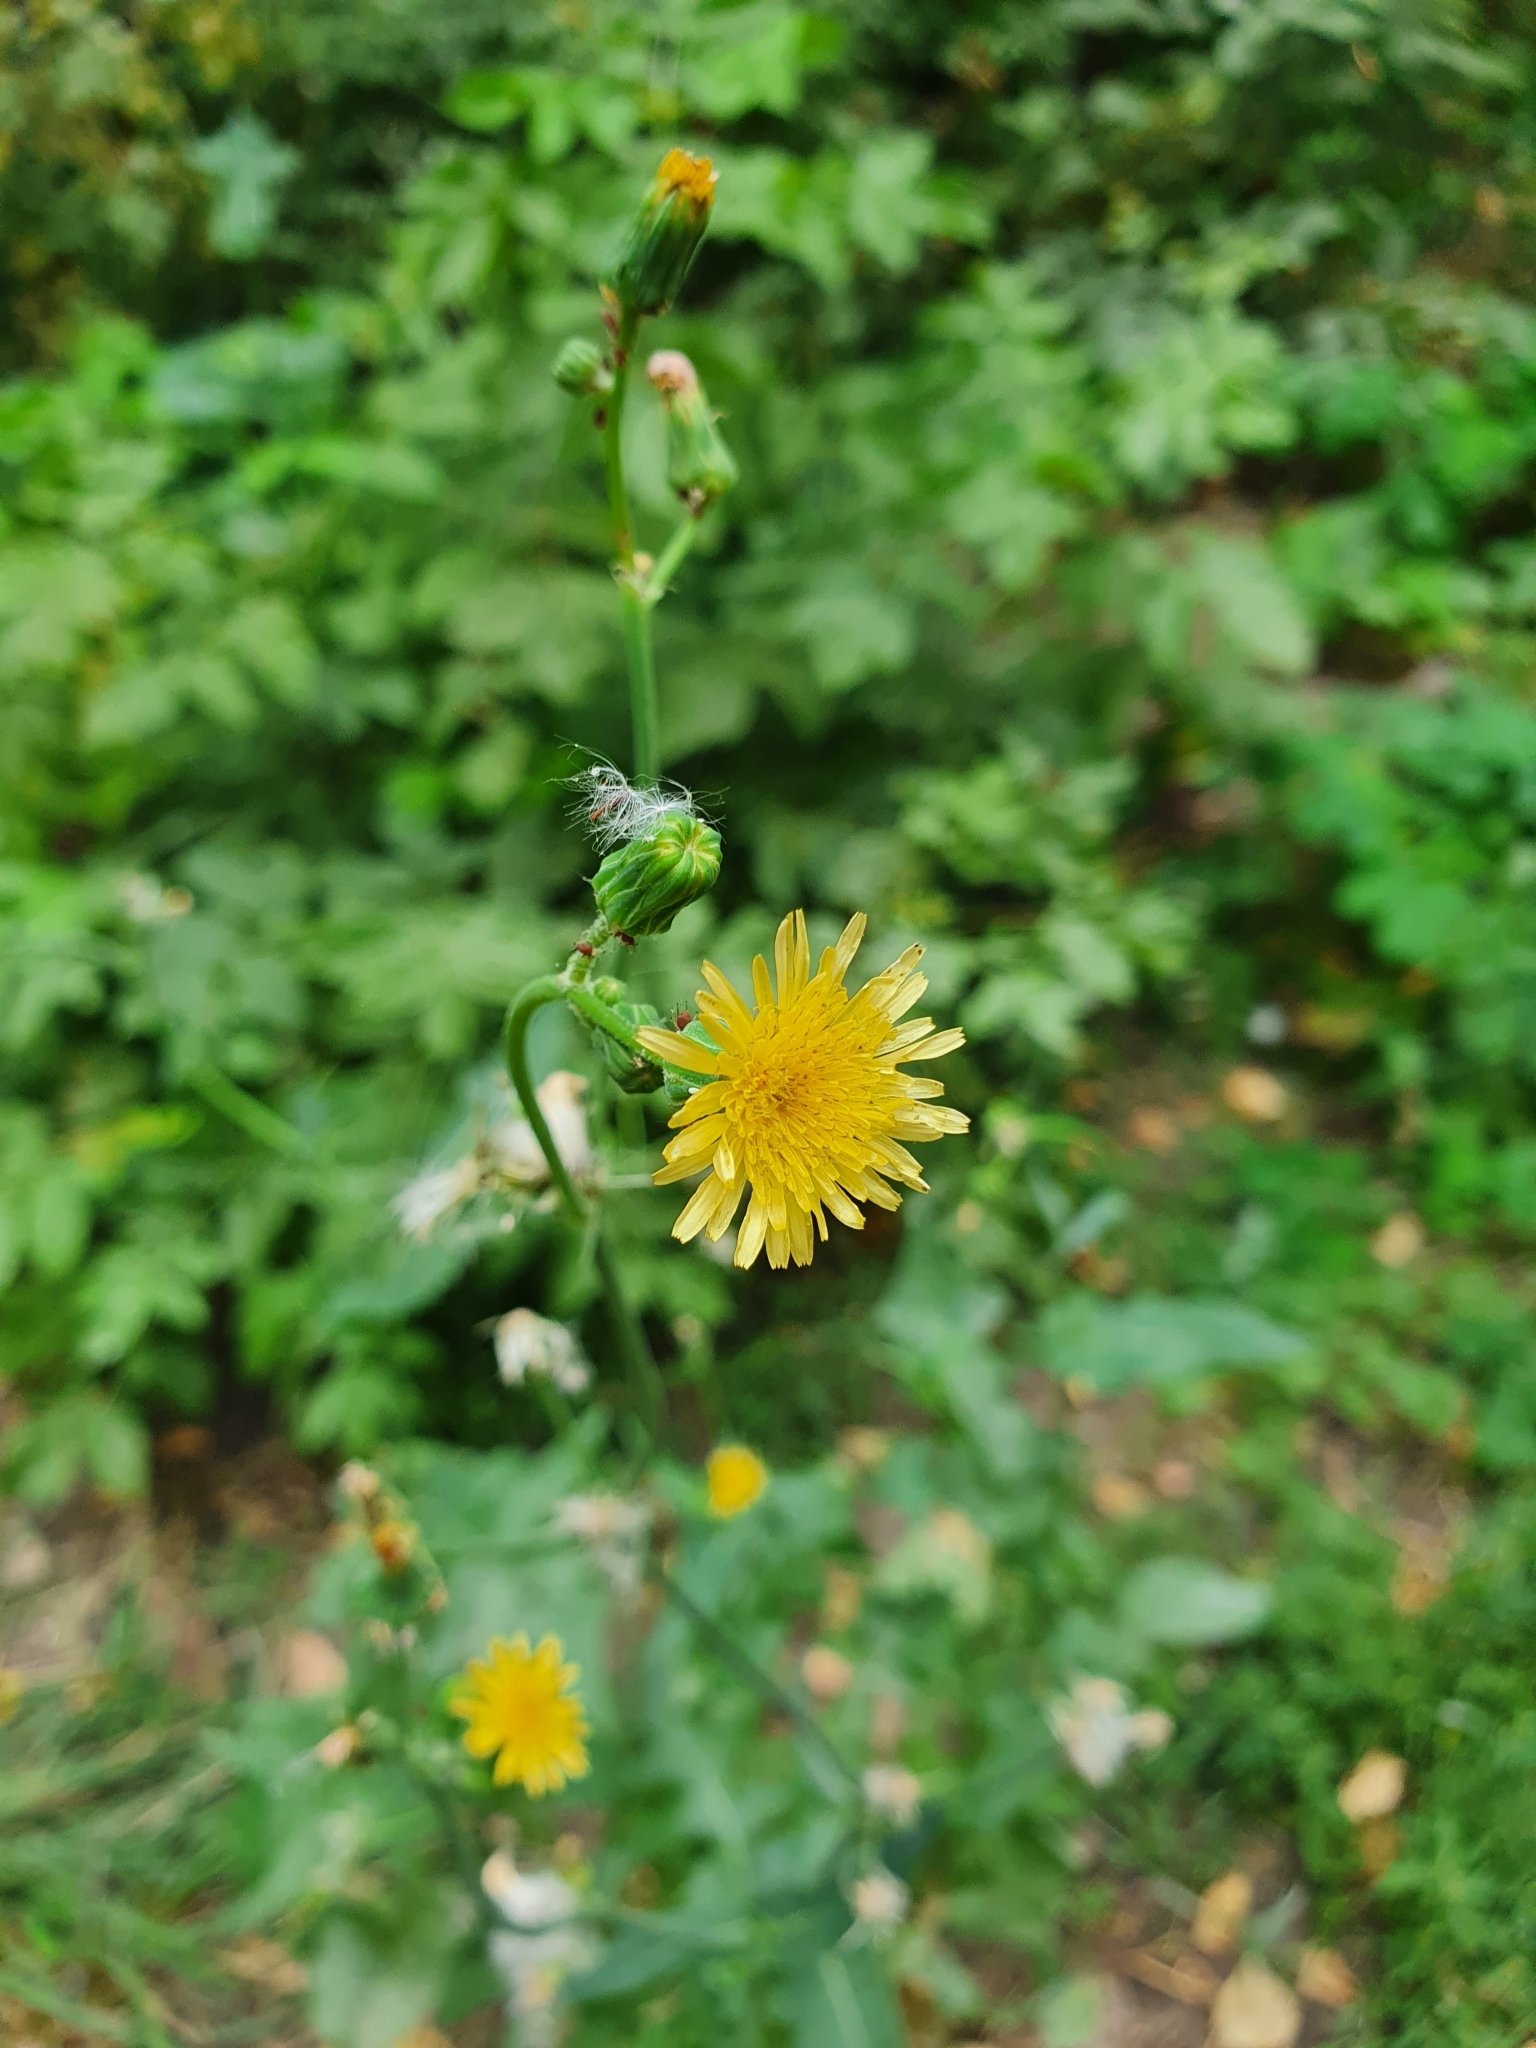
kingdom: Plantae
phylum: Tracheophyta
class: Magnoliopsida
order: Asterales
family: Asteraceae
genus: Sonchus
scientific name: Sonchus oleraceus
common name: Common sowthistle
